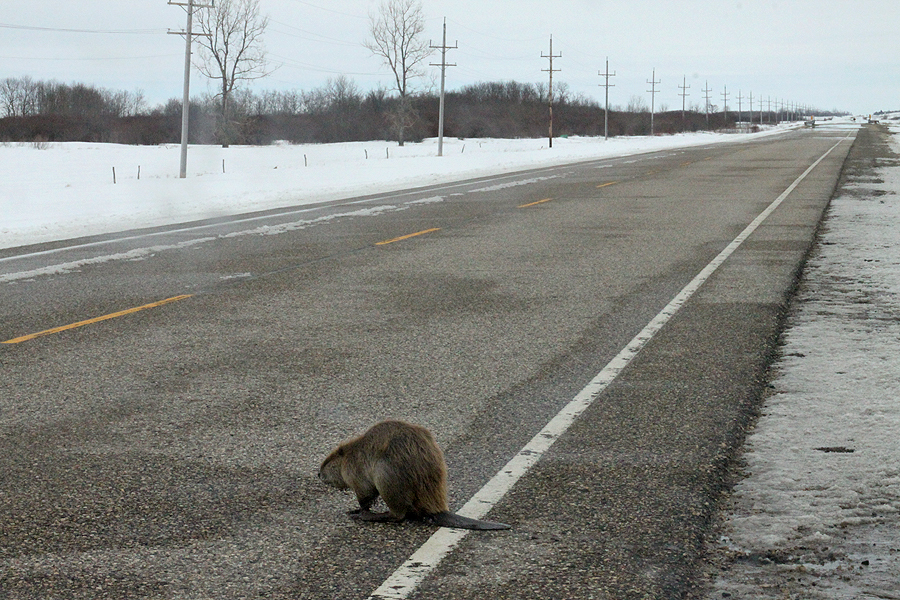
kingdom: Animalia
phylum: Chordata
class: Mammalia
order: Rodentia
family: Castoridae
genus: Castor
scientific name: Castor canadensis
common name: American beaver
